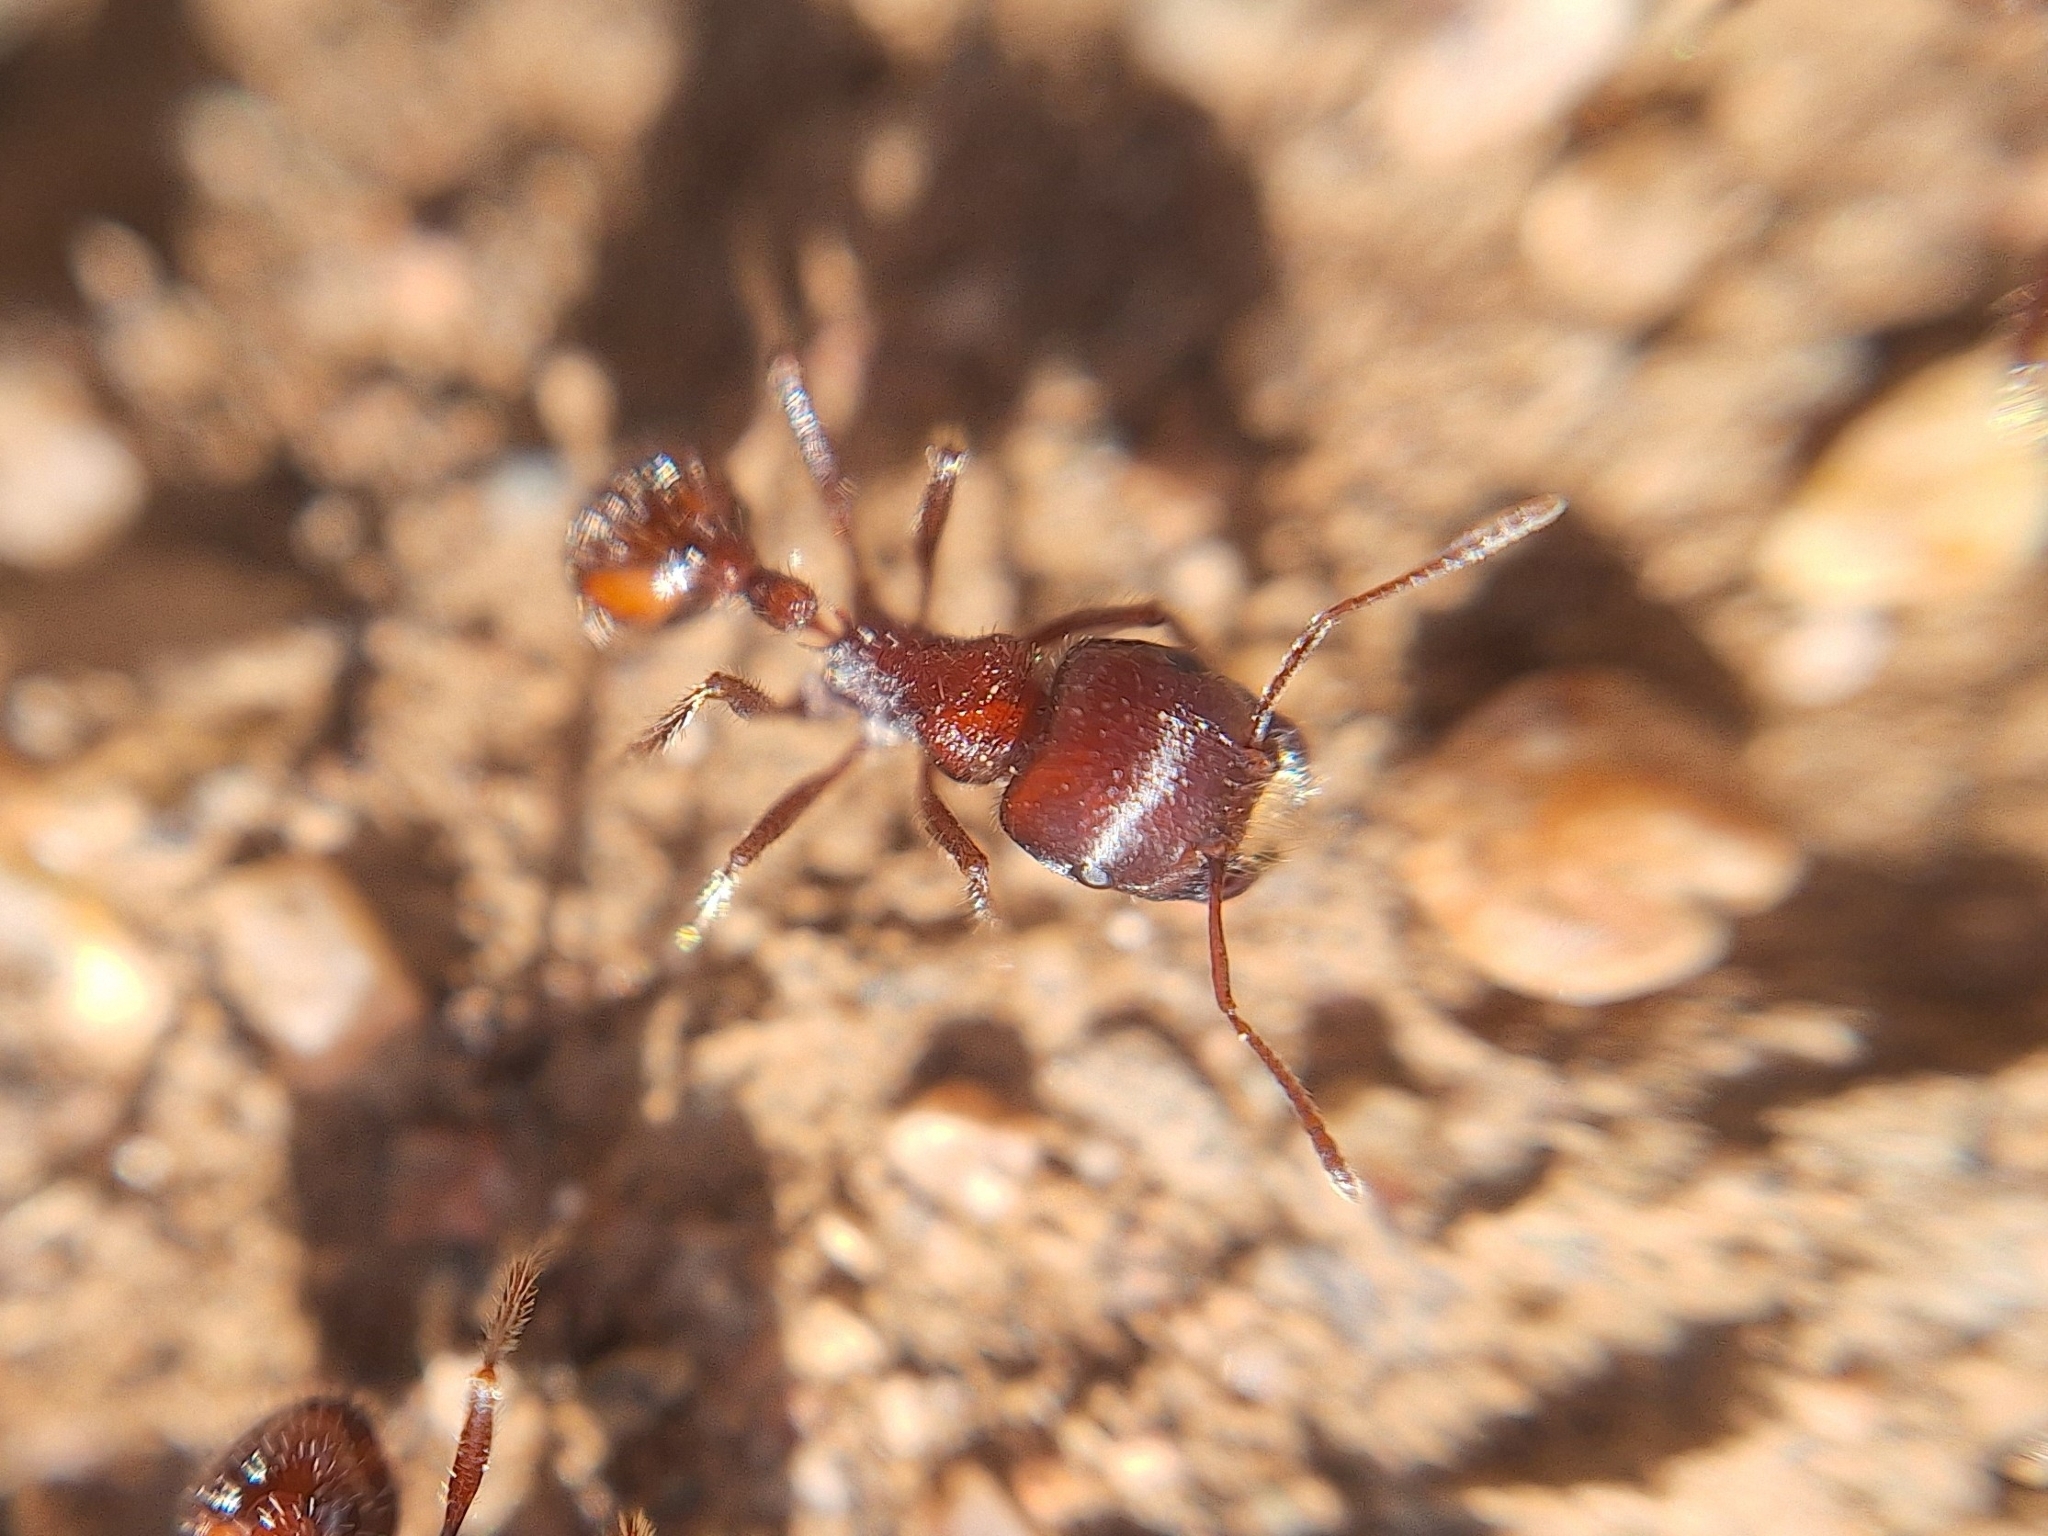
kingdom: Animalia
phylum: Arthropoda
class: Insecta
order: Hymenoptera
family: Formicidae
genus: Pogonomyrmex
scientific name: Pogonomyrmex rugosus
